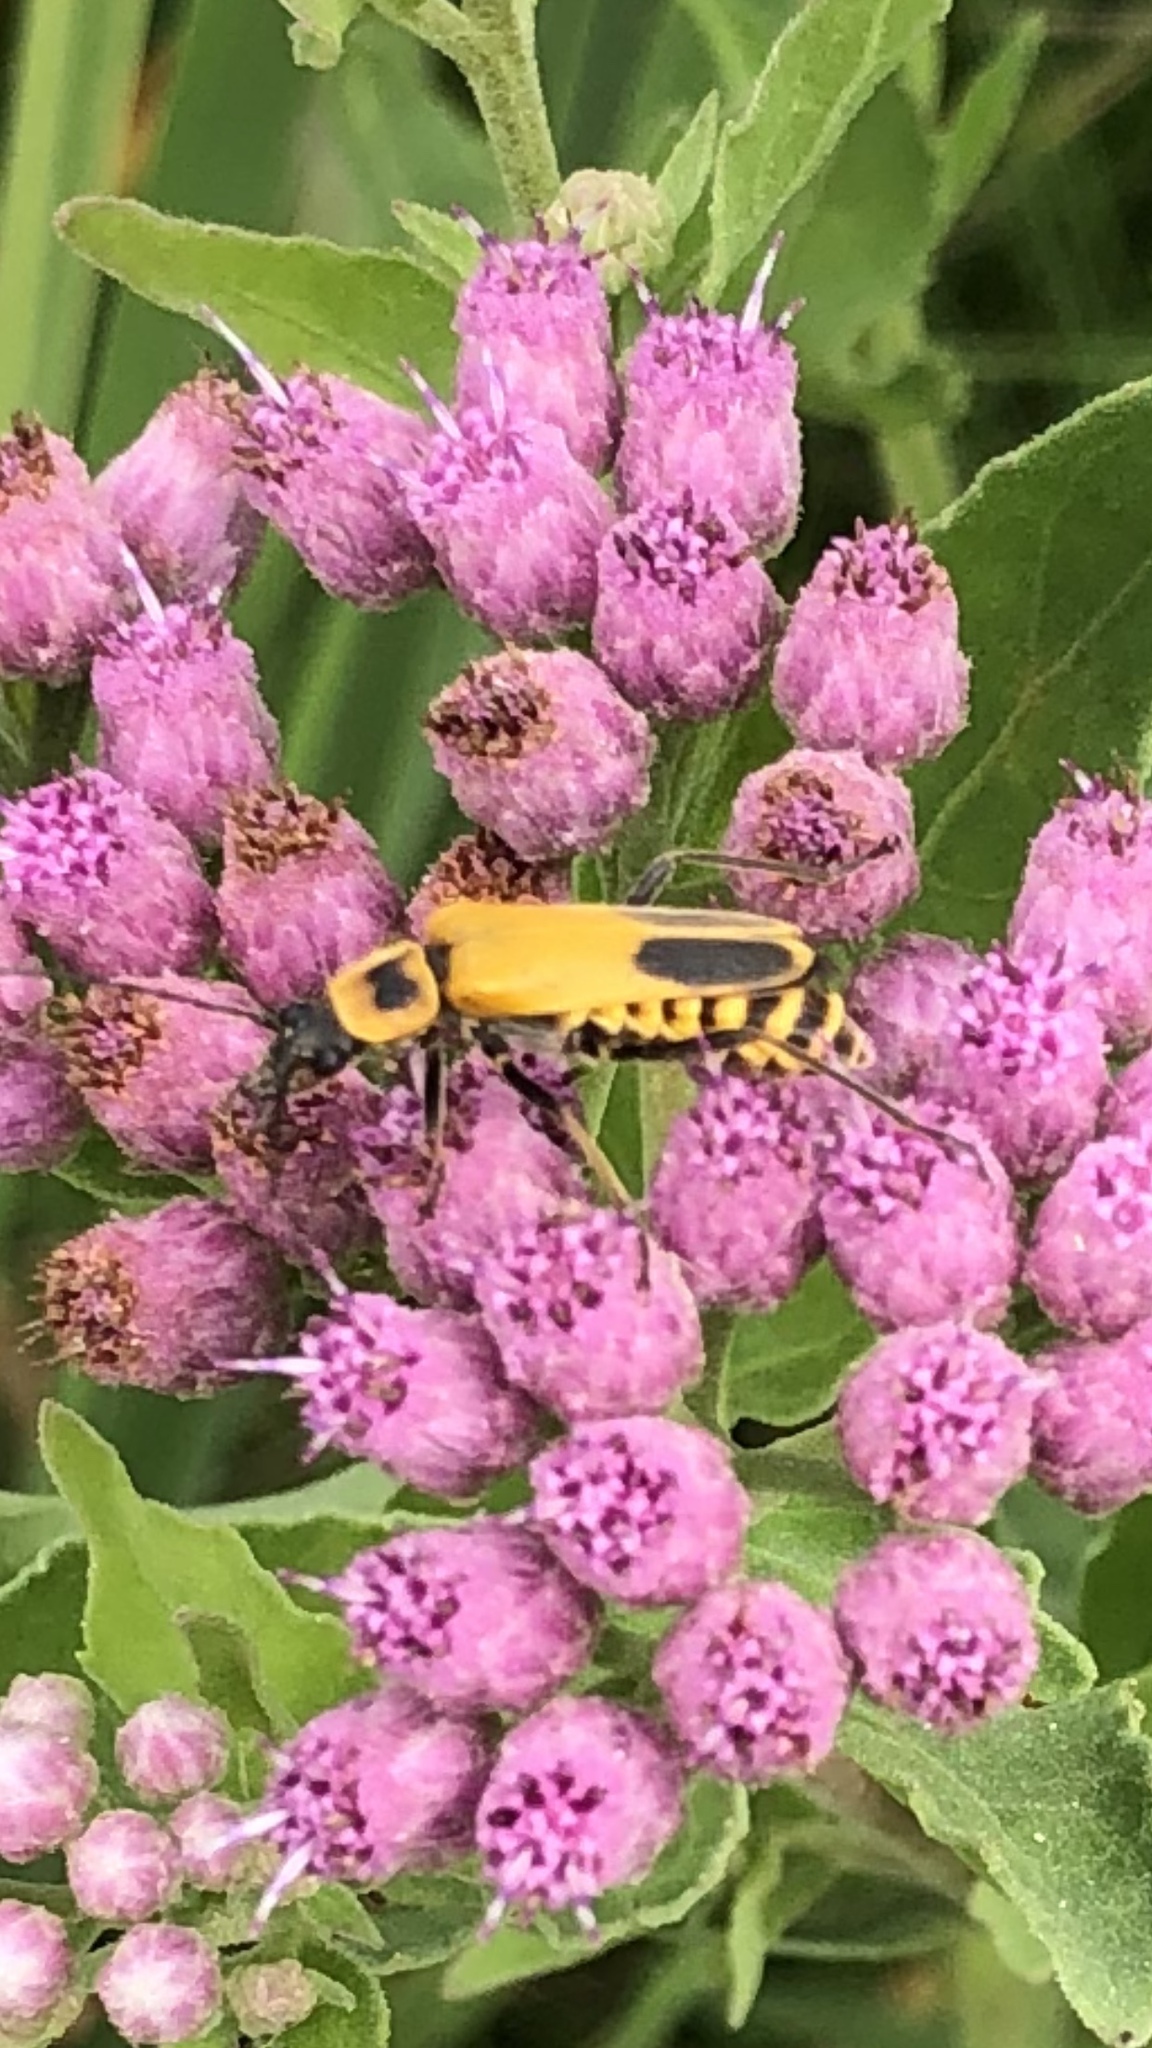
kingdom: Animalia
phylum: Arthropoda
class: Insecta
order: Coleoptera
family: Cantharidae
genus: Chauliognathus
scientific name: Chauliognathus pensylvanicus
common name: Goldenrod soldier beetle
